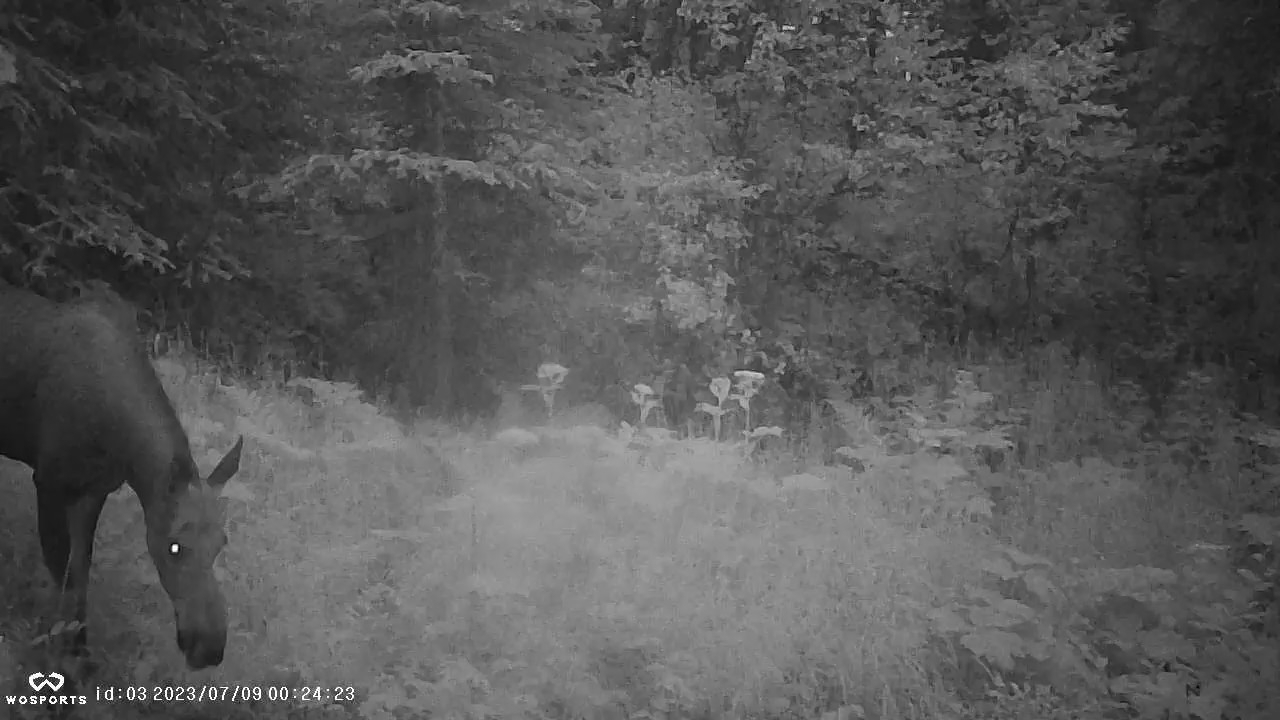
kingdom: Animalia
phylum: Chordata
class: Mammalia
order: Artiodactyla
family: Cervidae
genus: Alces
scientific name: Alces alces
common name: Moose
